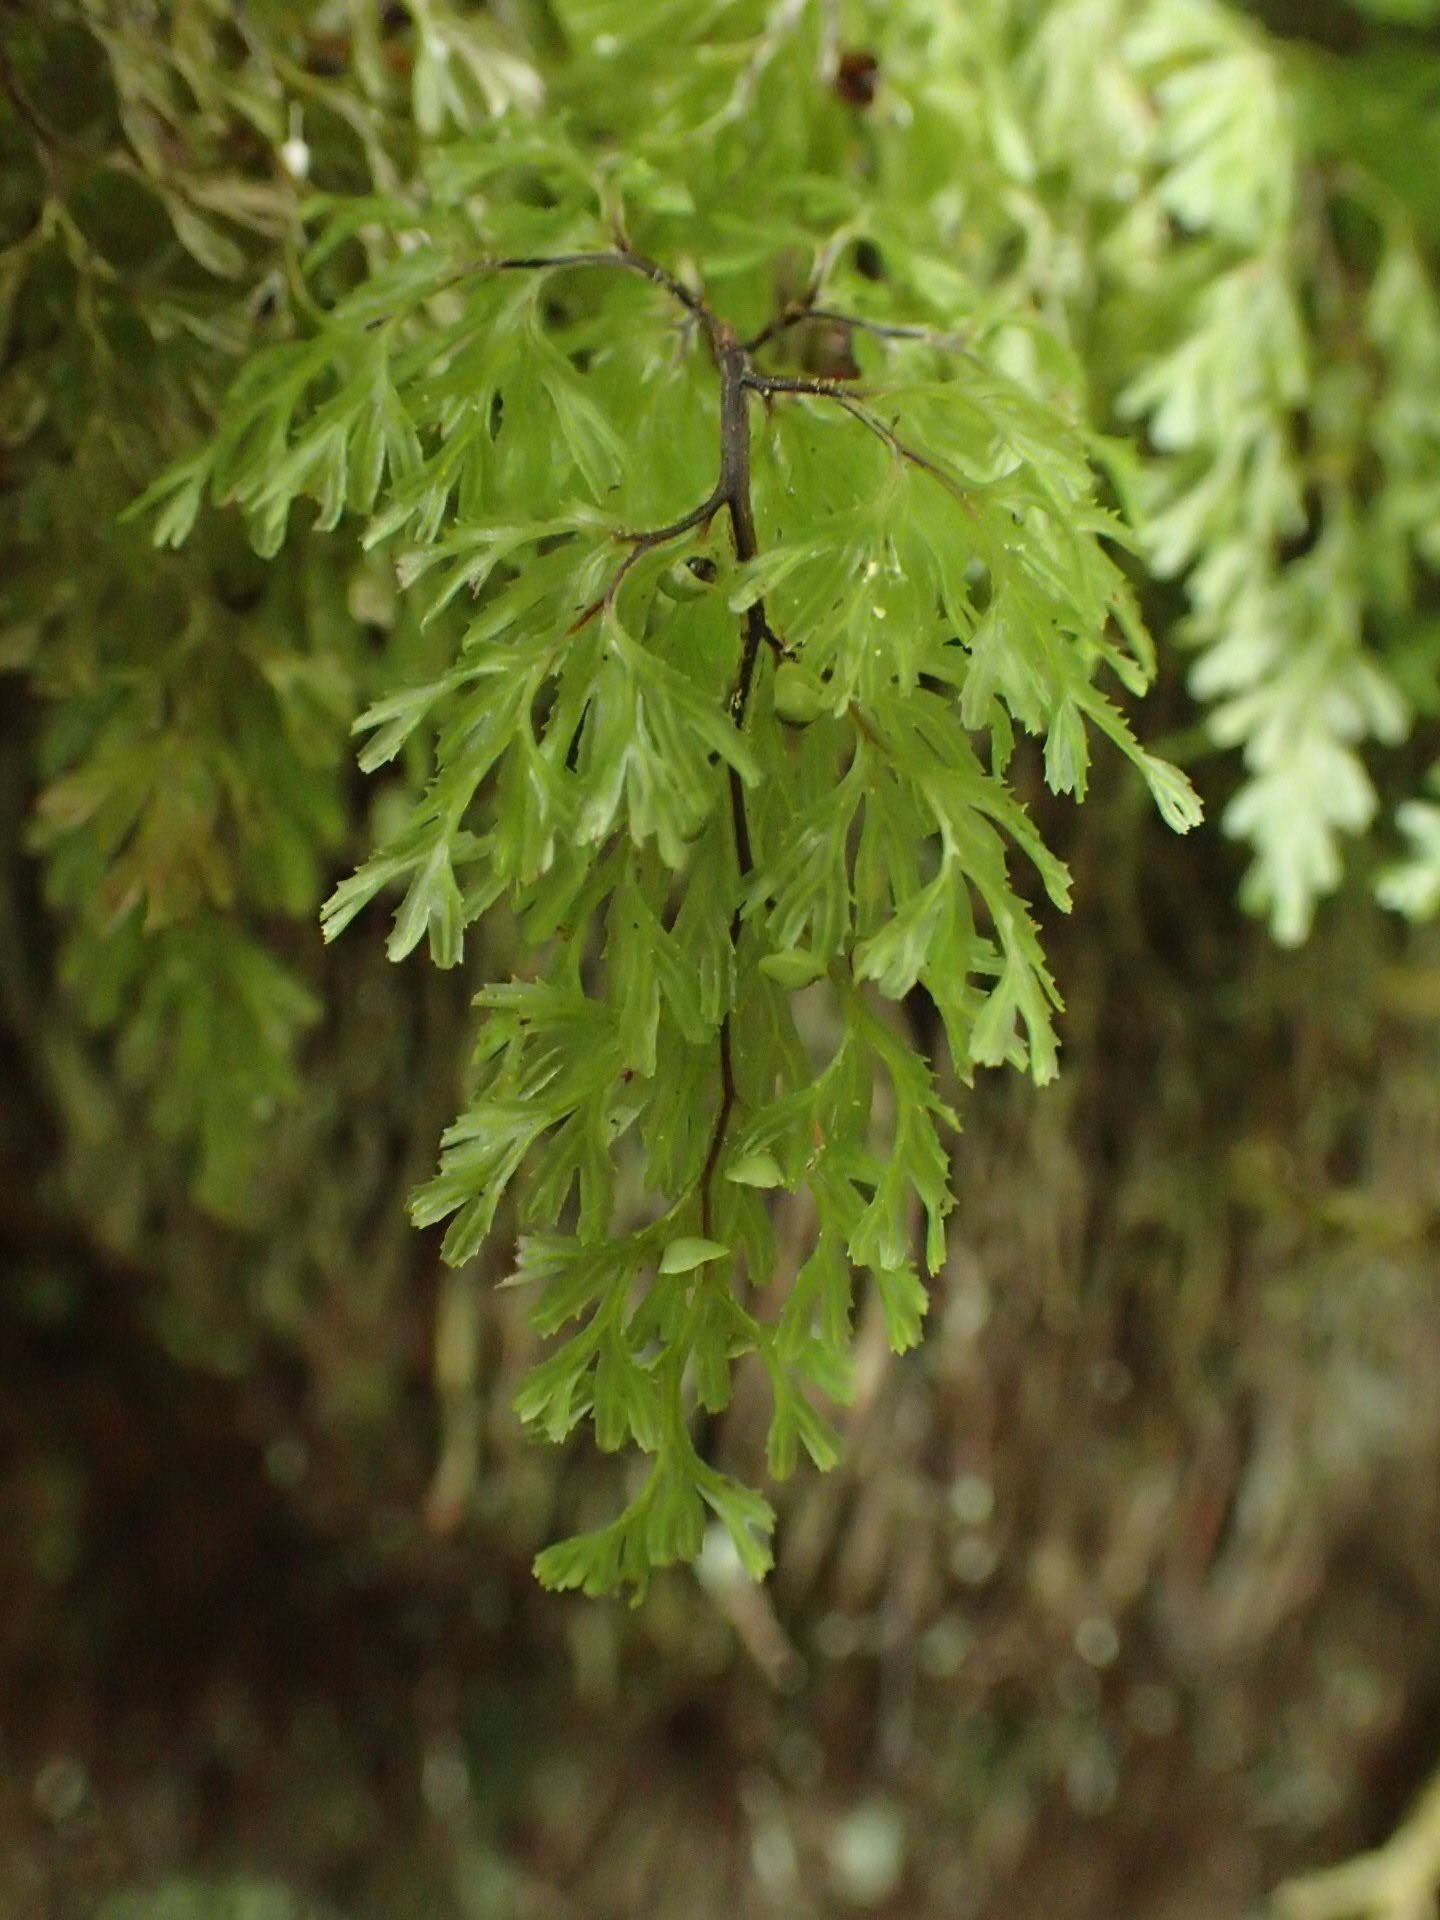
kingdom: Plantae
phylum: Tracheophyta
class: Polypodiopsida
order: Hymenophyllales
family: Hymenophyllaceae
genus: Hymenophyllum
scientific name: Hymenophyllum multifidum
